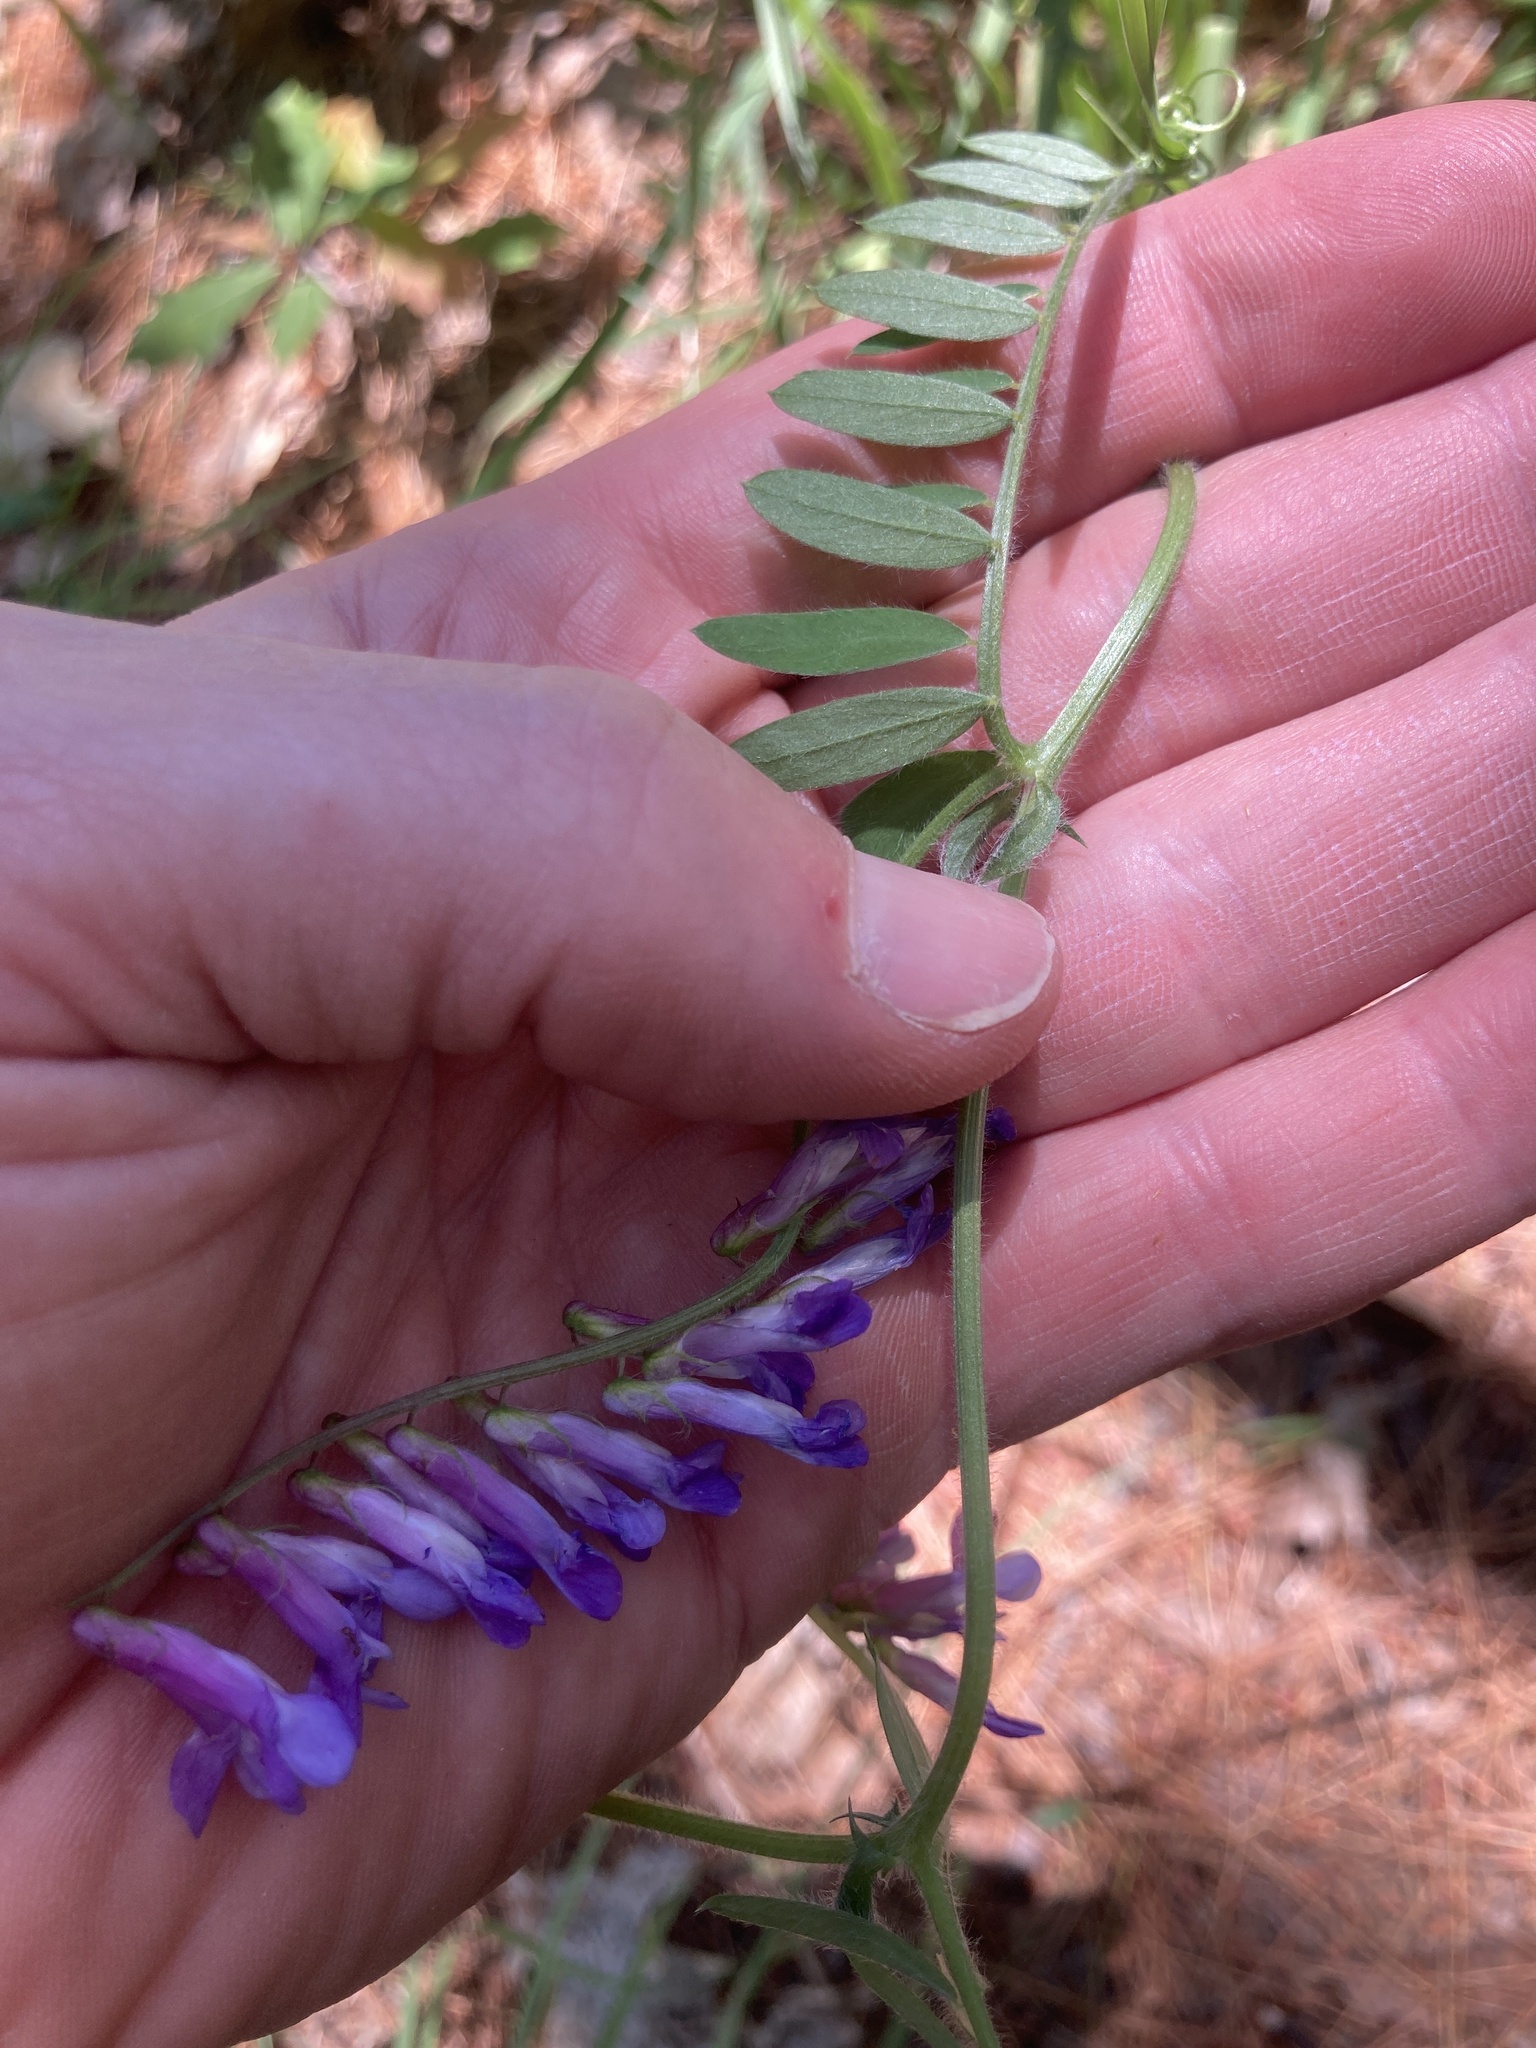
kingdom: Plantae
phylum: Tracheophyta
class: Magnoliopsida
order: Fabales
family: Fabaceae
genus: Vicia
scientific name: Vicia villosa
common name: Fodder vetch
